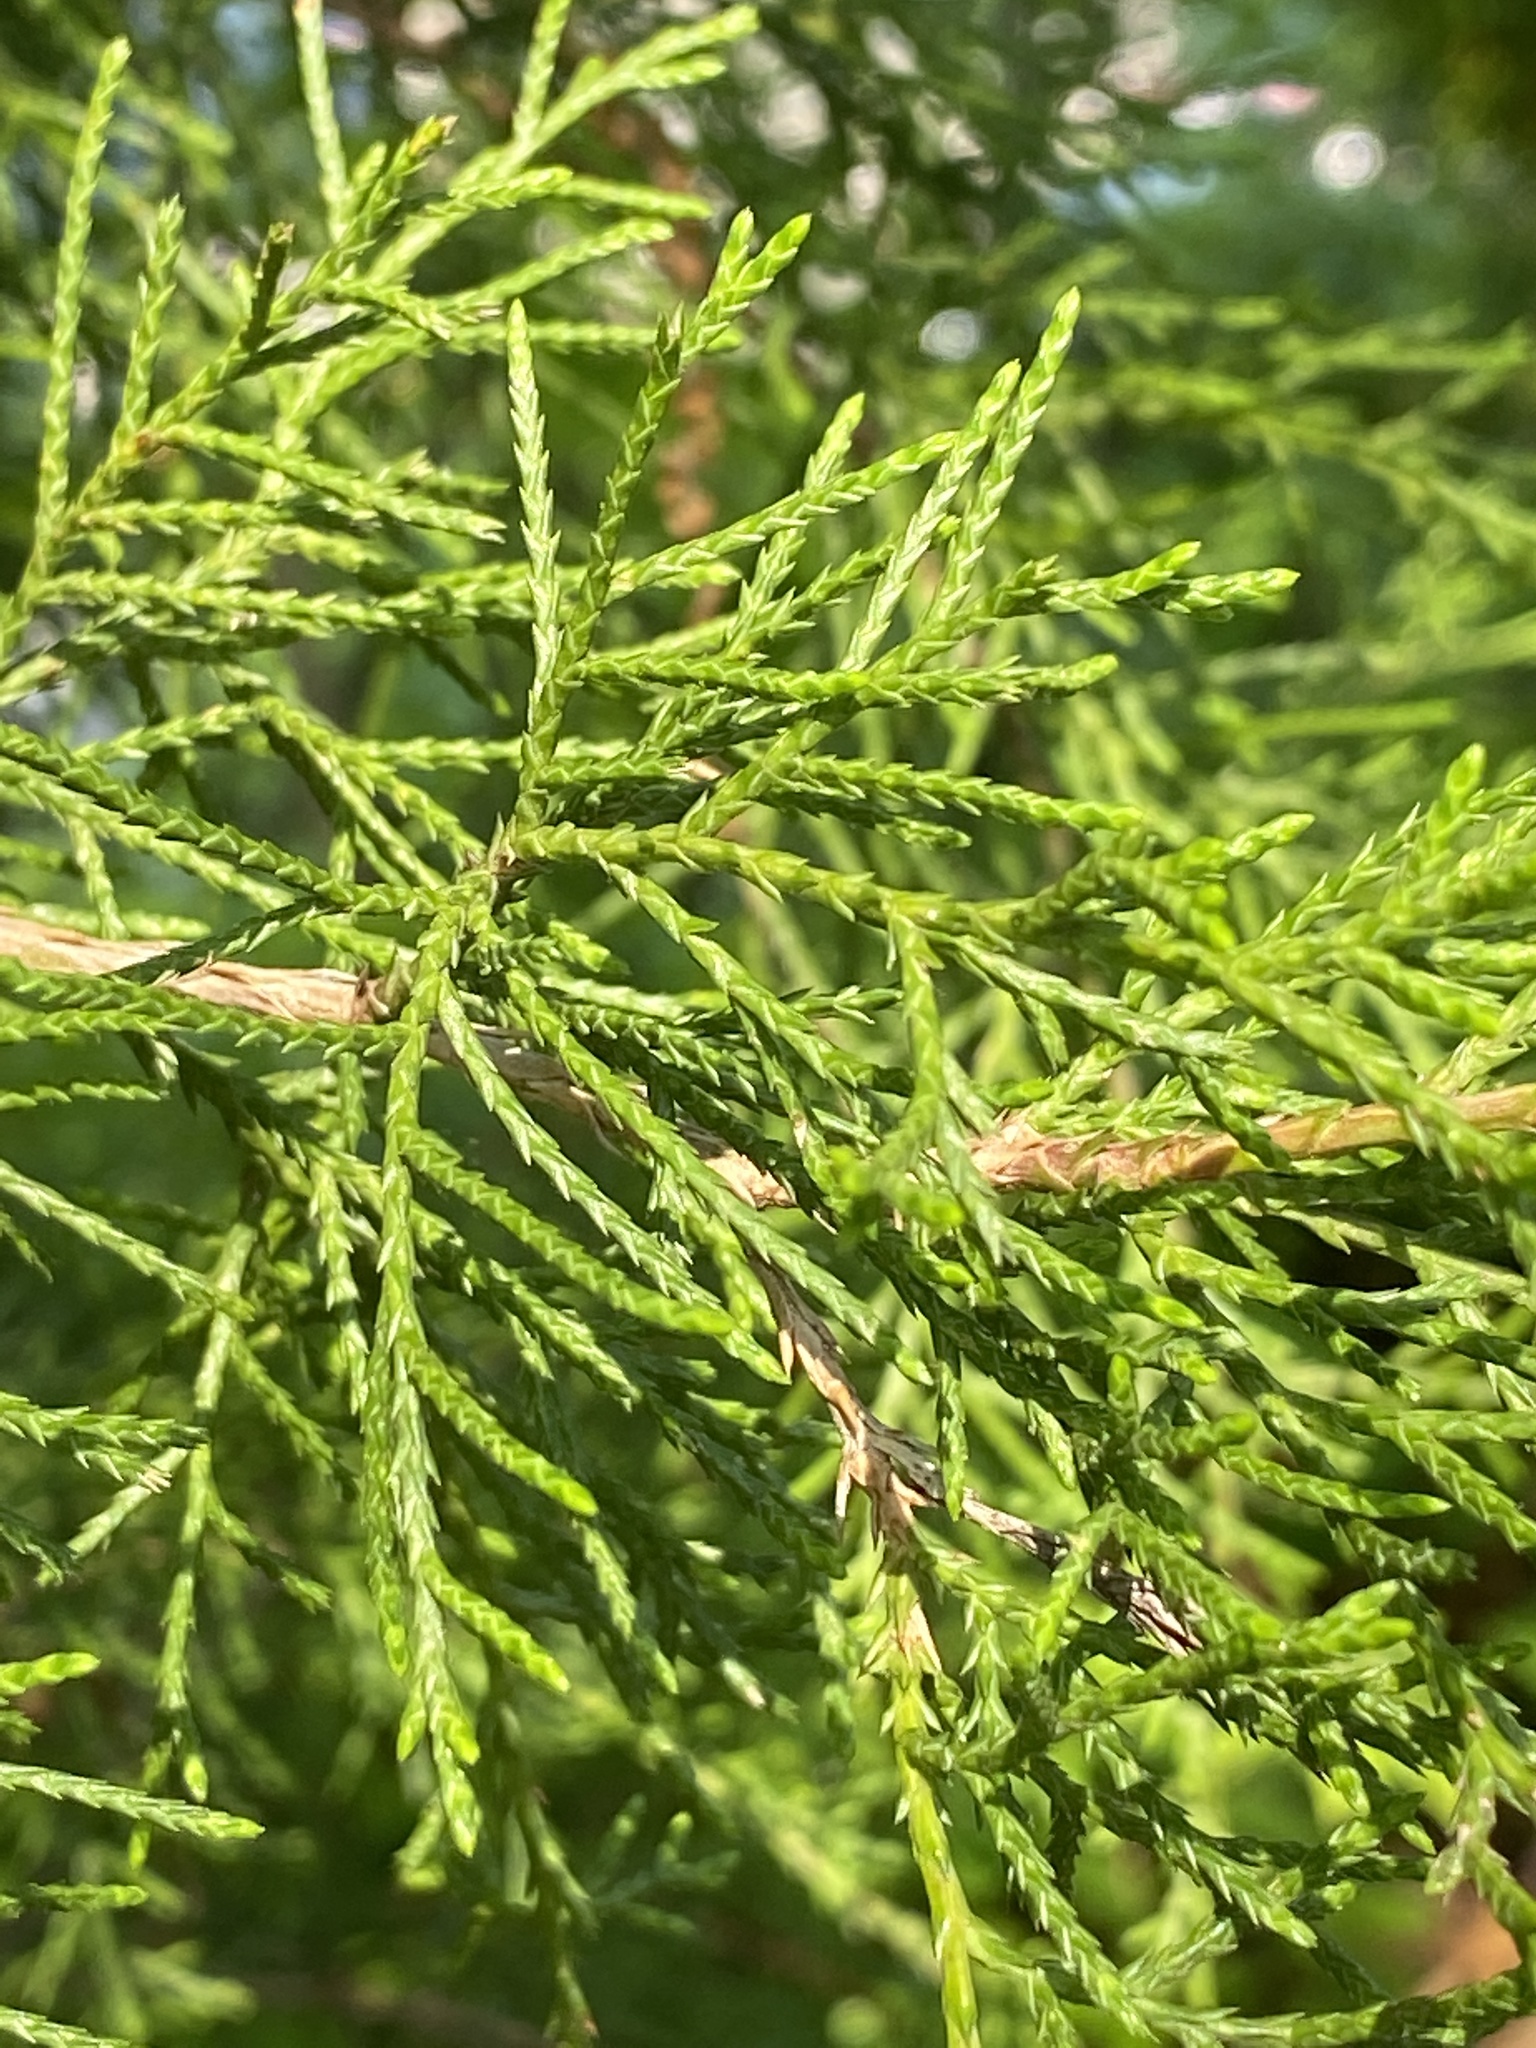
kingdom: Plantae
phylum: Tracheophyta
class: Pinopsida
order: Pinales
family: Cupressaceae
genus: Juniperus
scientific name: Juniperus virginiana
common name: Red juniper
